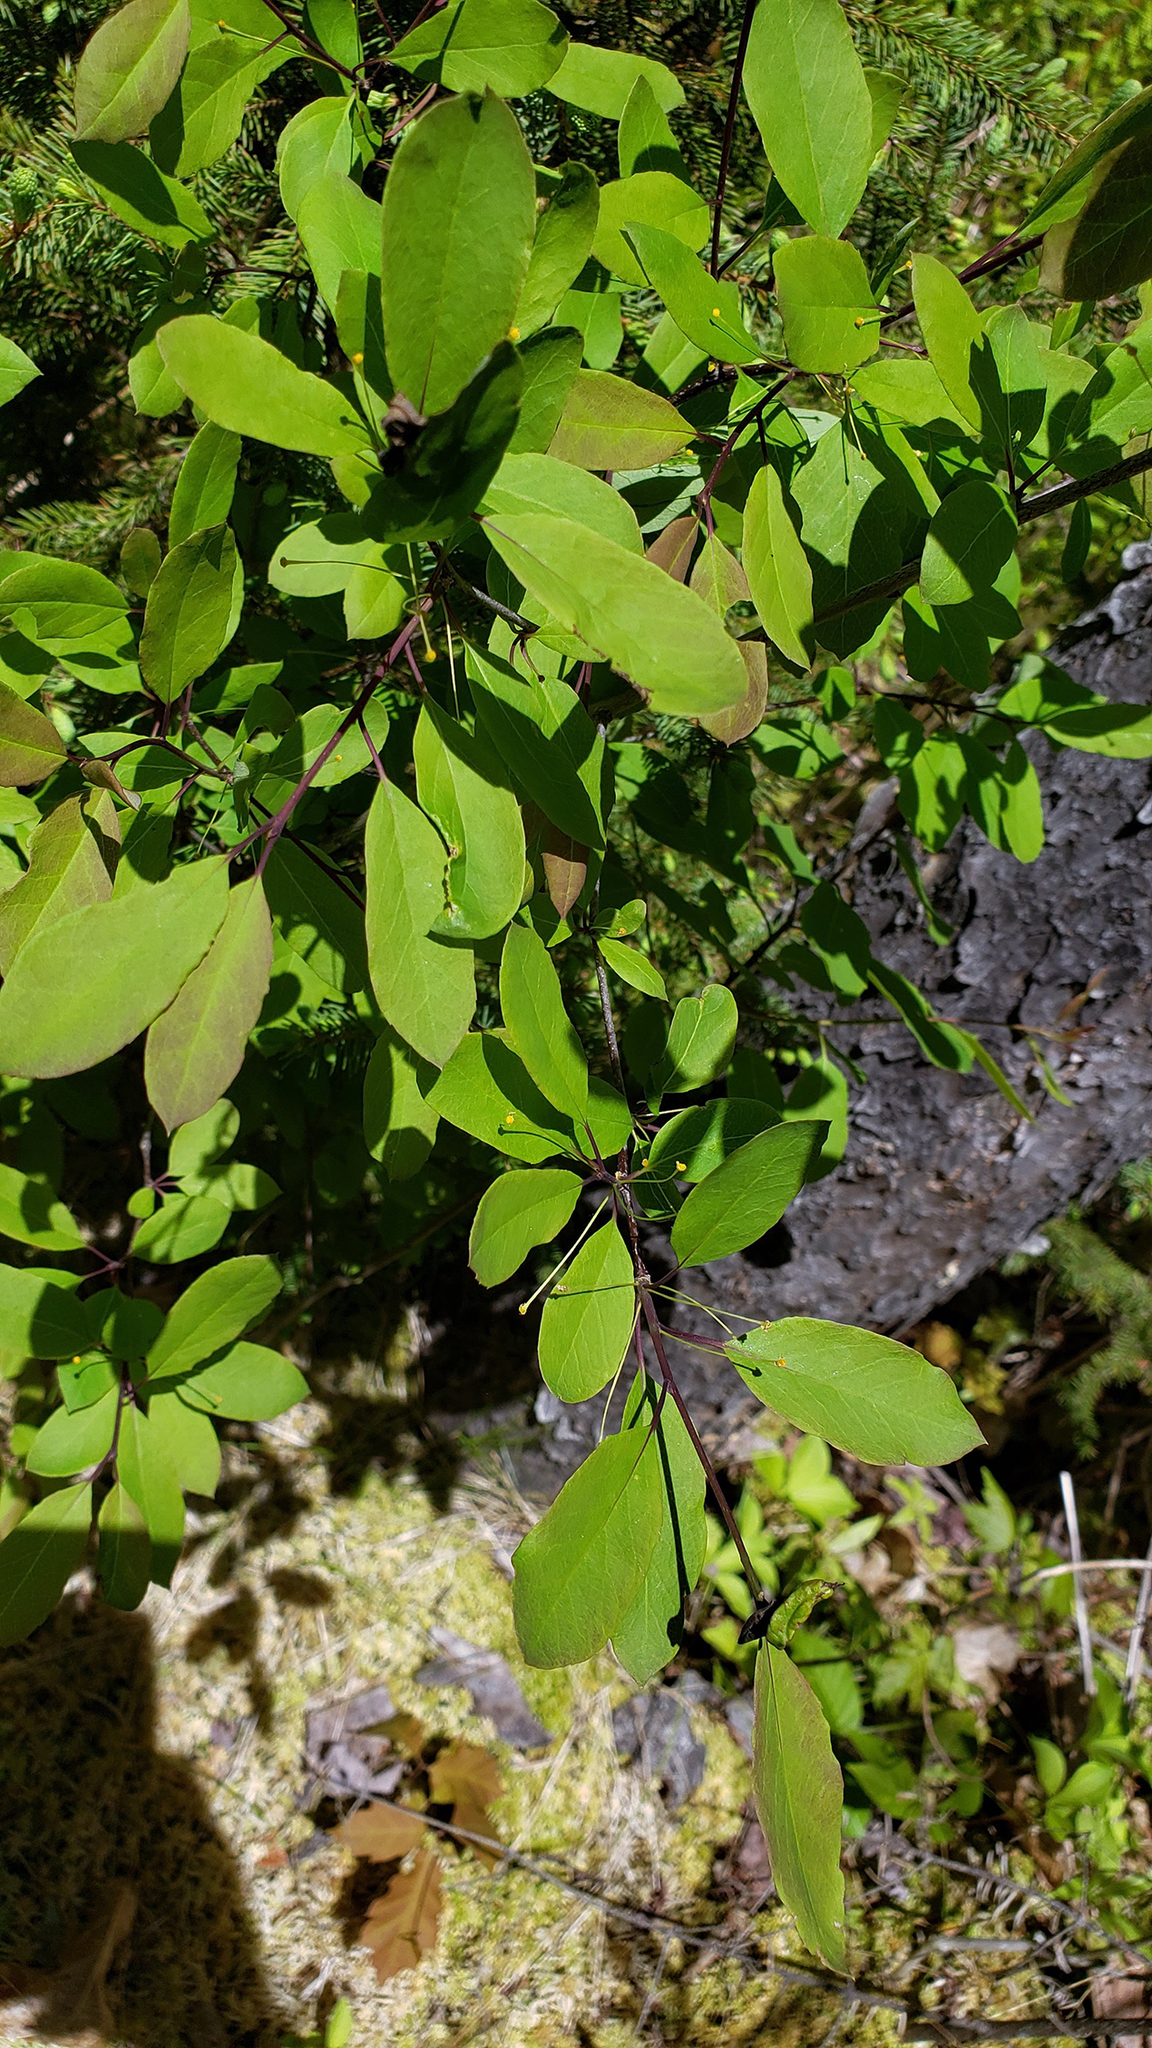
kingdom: Plantae
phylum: Tracheophyta
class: Magnoliopsida
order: Aquifoliales
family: Aquifoliaceae
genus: Ilex
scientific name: Ilex mucronata
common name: Catberry
